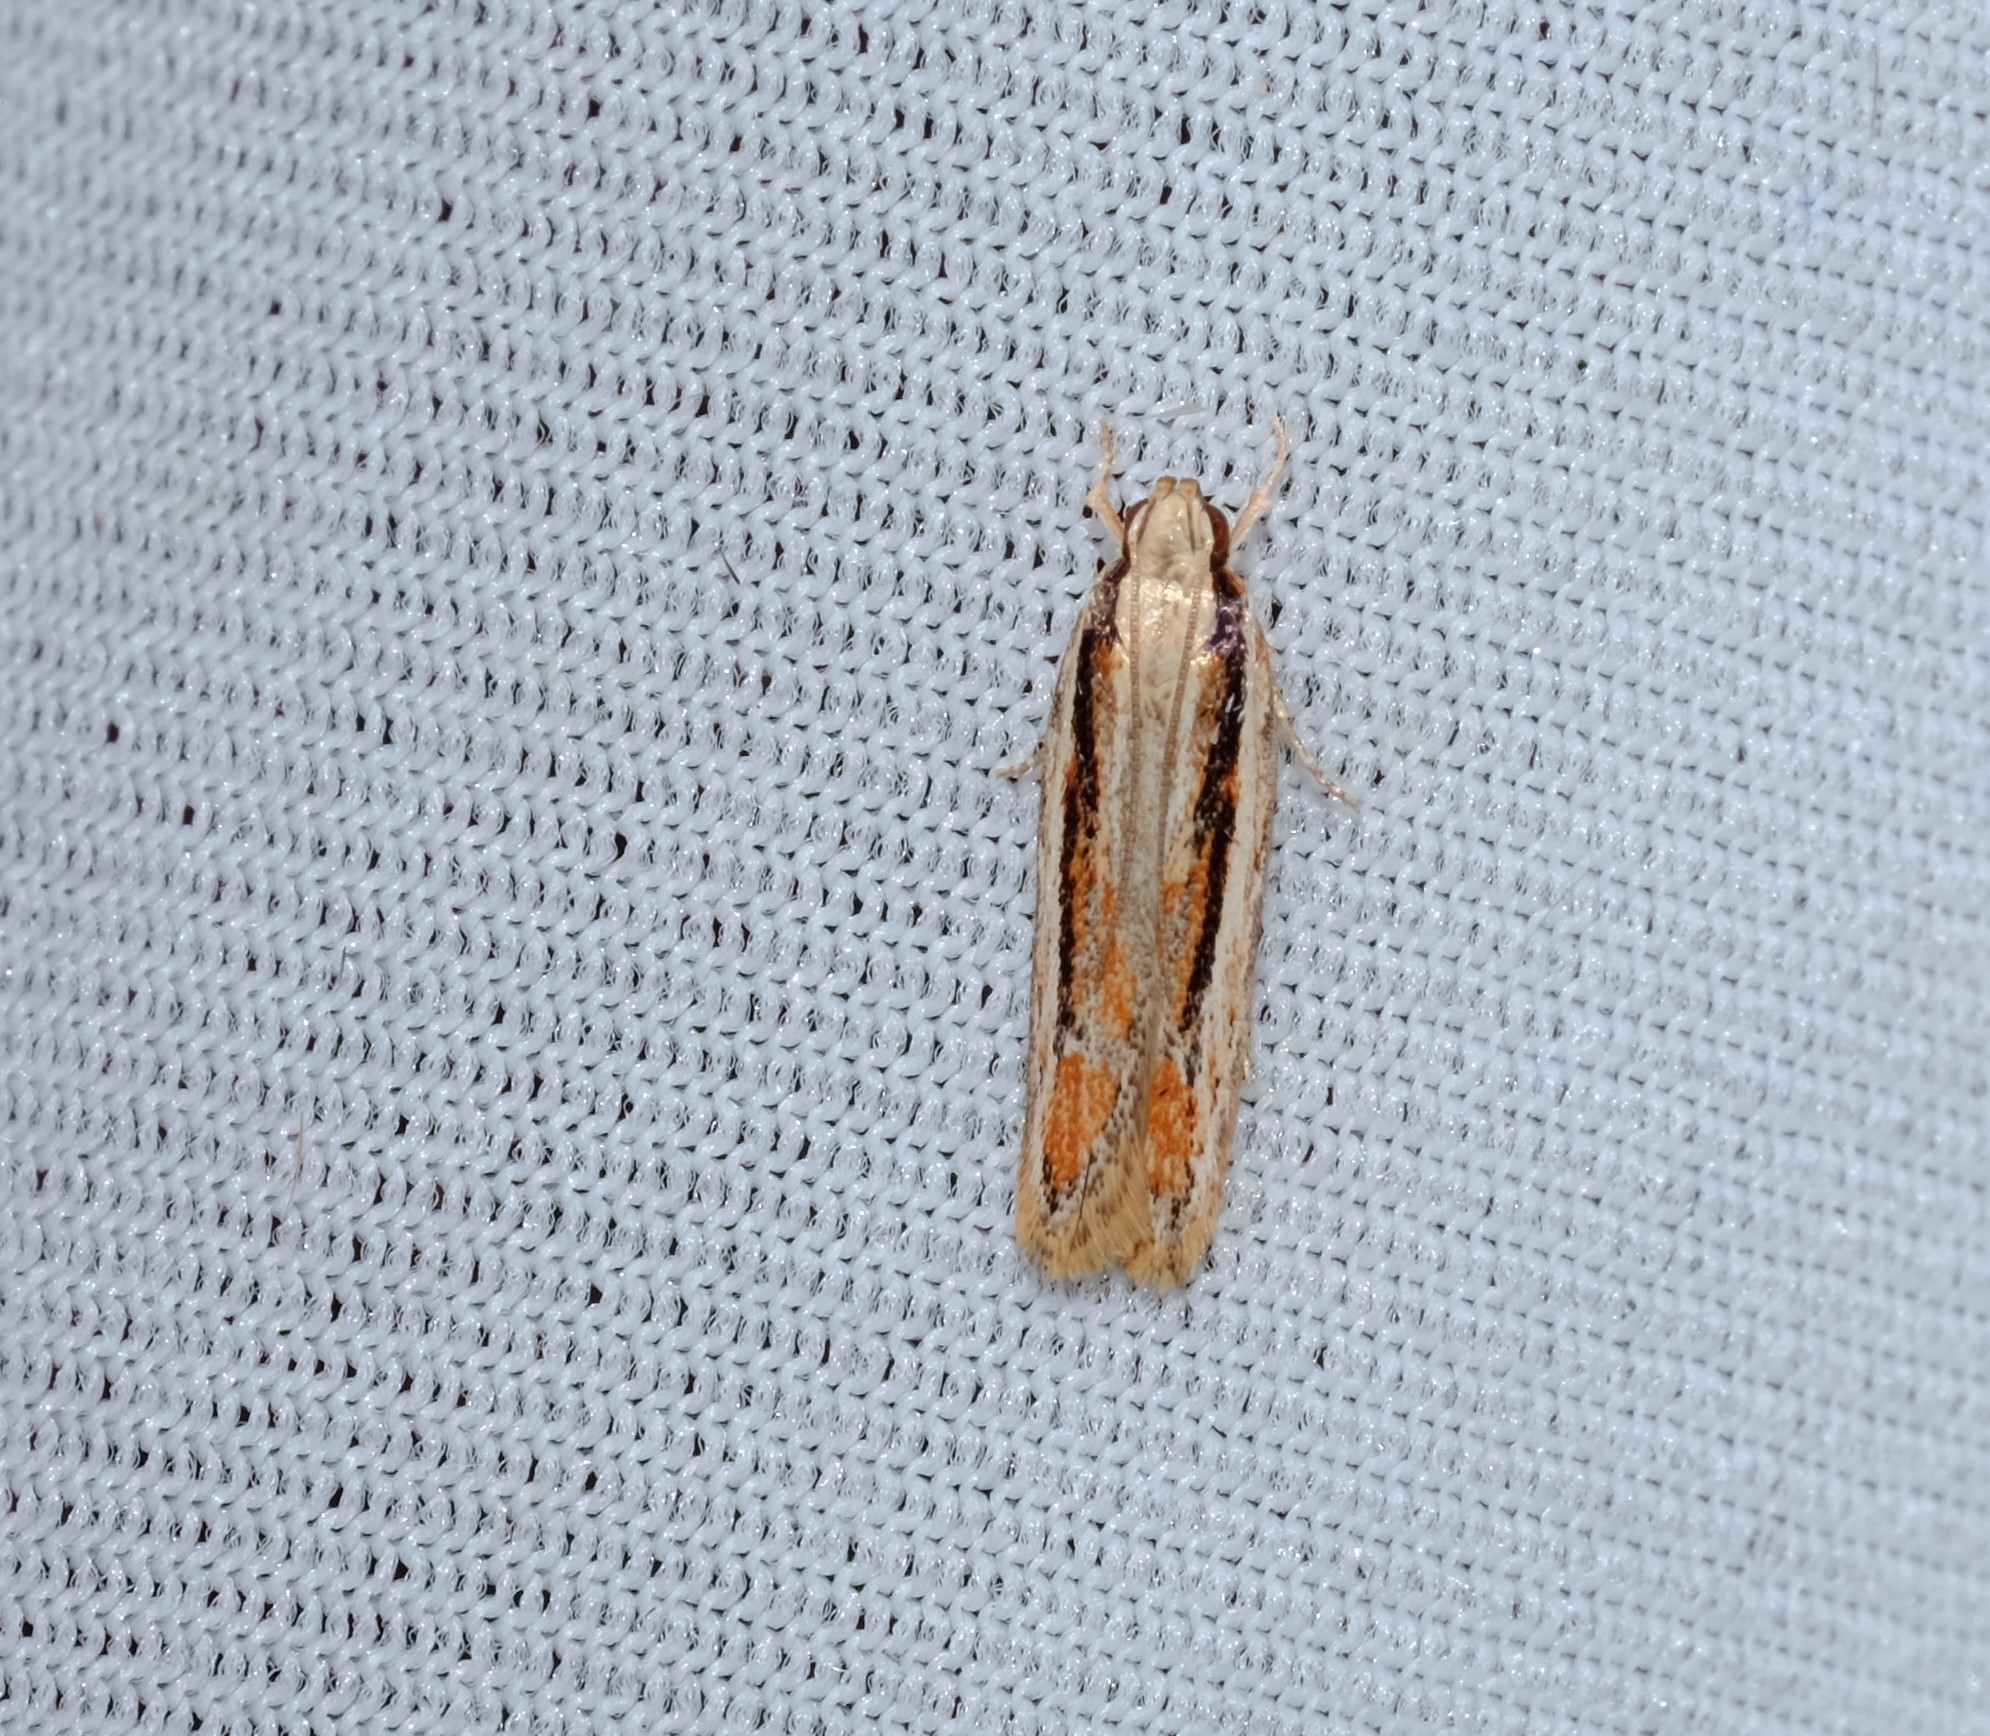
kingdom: Animalia
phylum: Arthropoda
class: Insecta
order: Lepidoptera
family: Gelechiidae
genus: Ardozyga
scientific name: Ardozyga orthanotos
